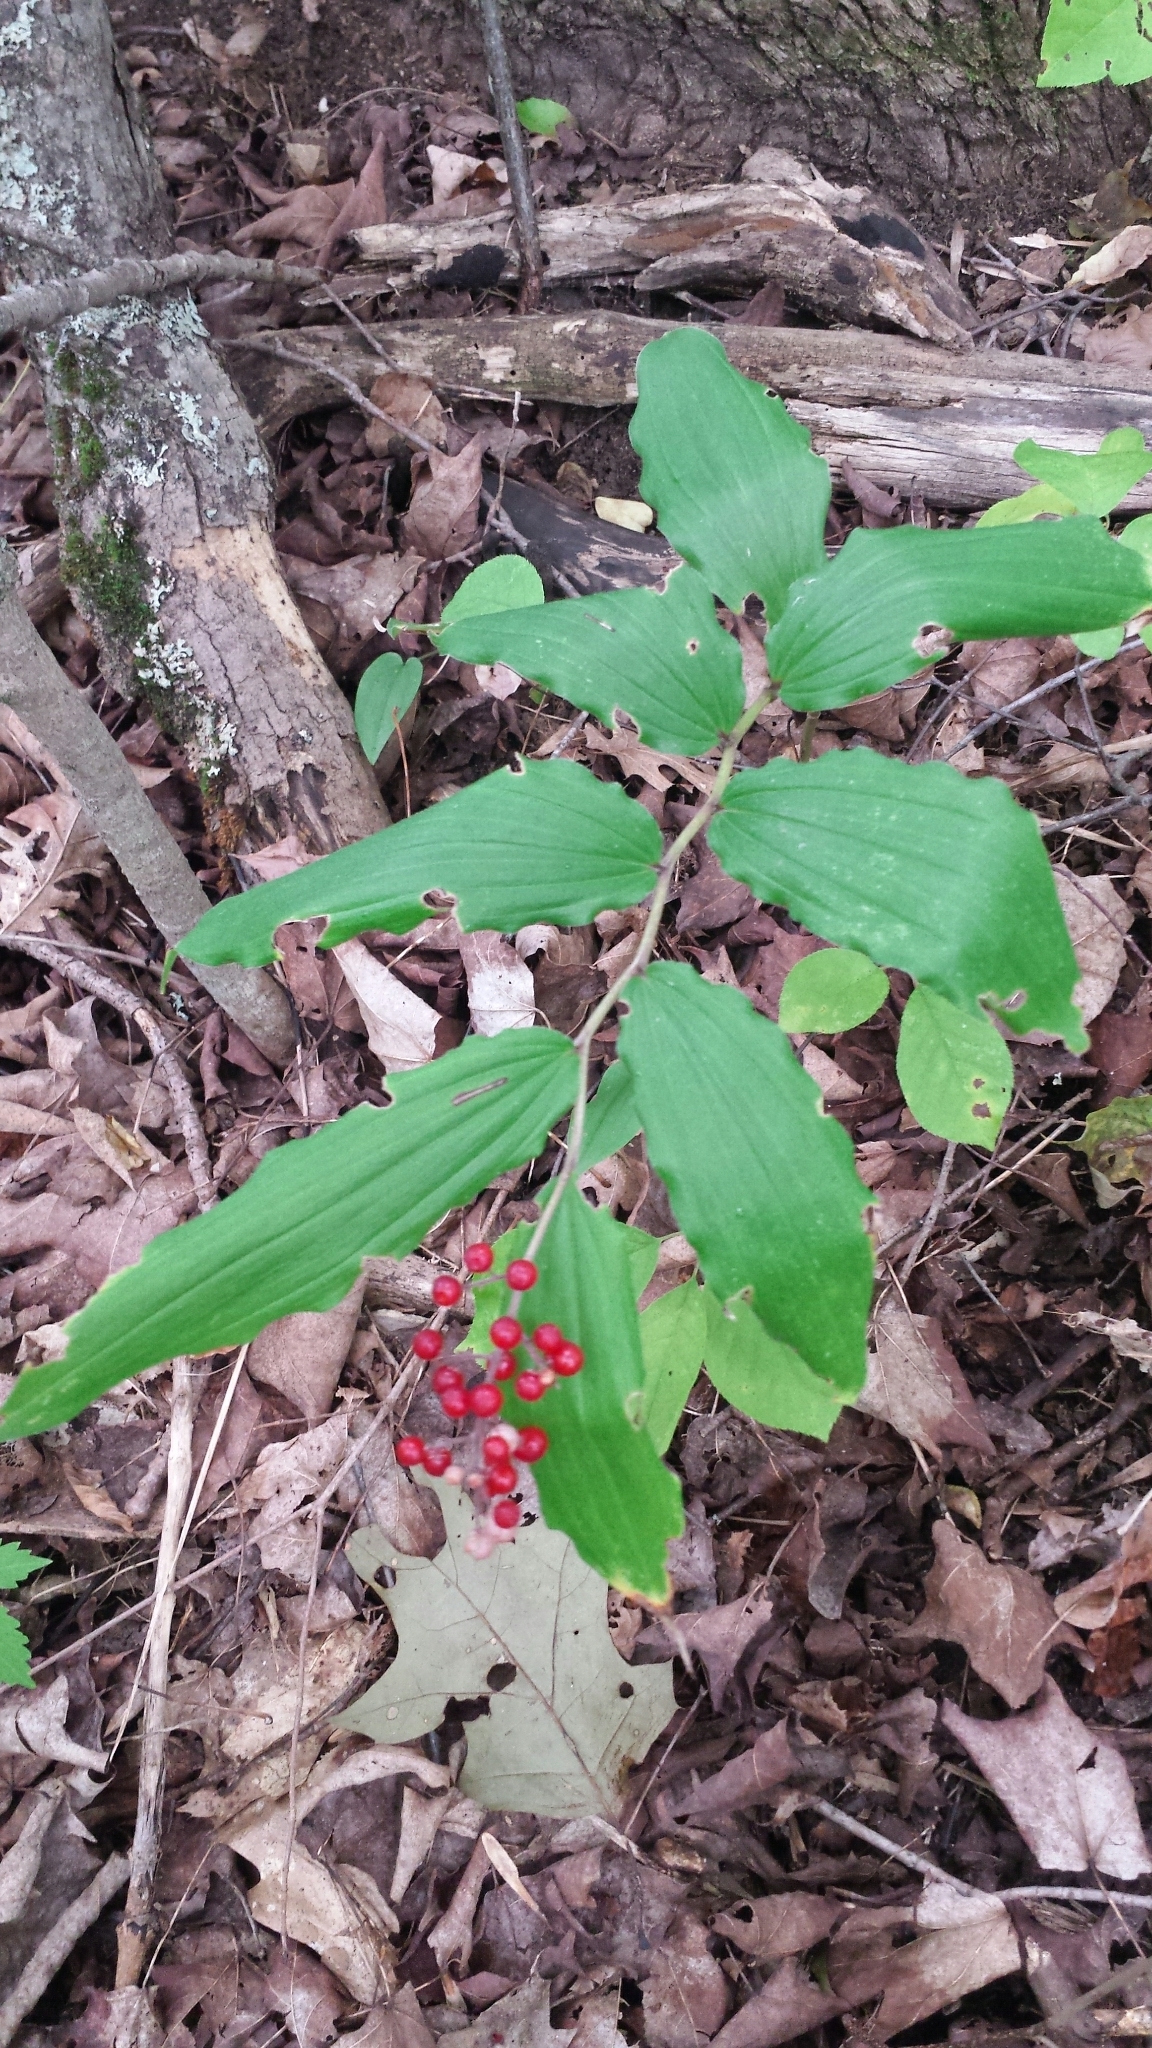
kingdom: Plantae
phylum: Tracheophyta
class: Liliopsida
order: Asparagales
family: Asparagaceae
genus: Maianthemum
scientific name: Maianthemum racemosum
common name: False spikenard
